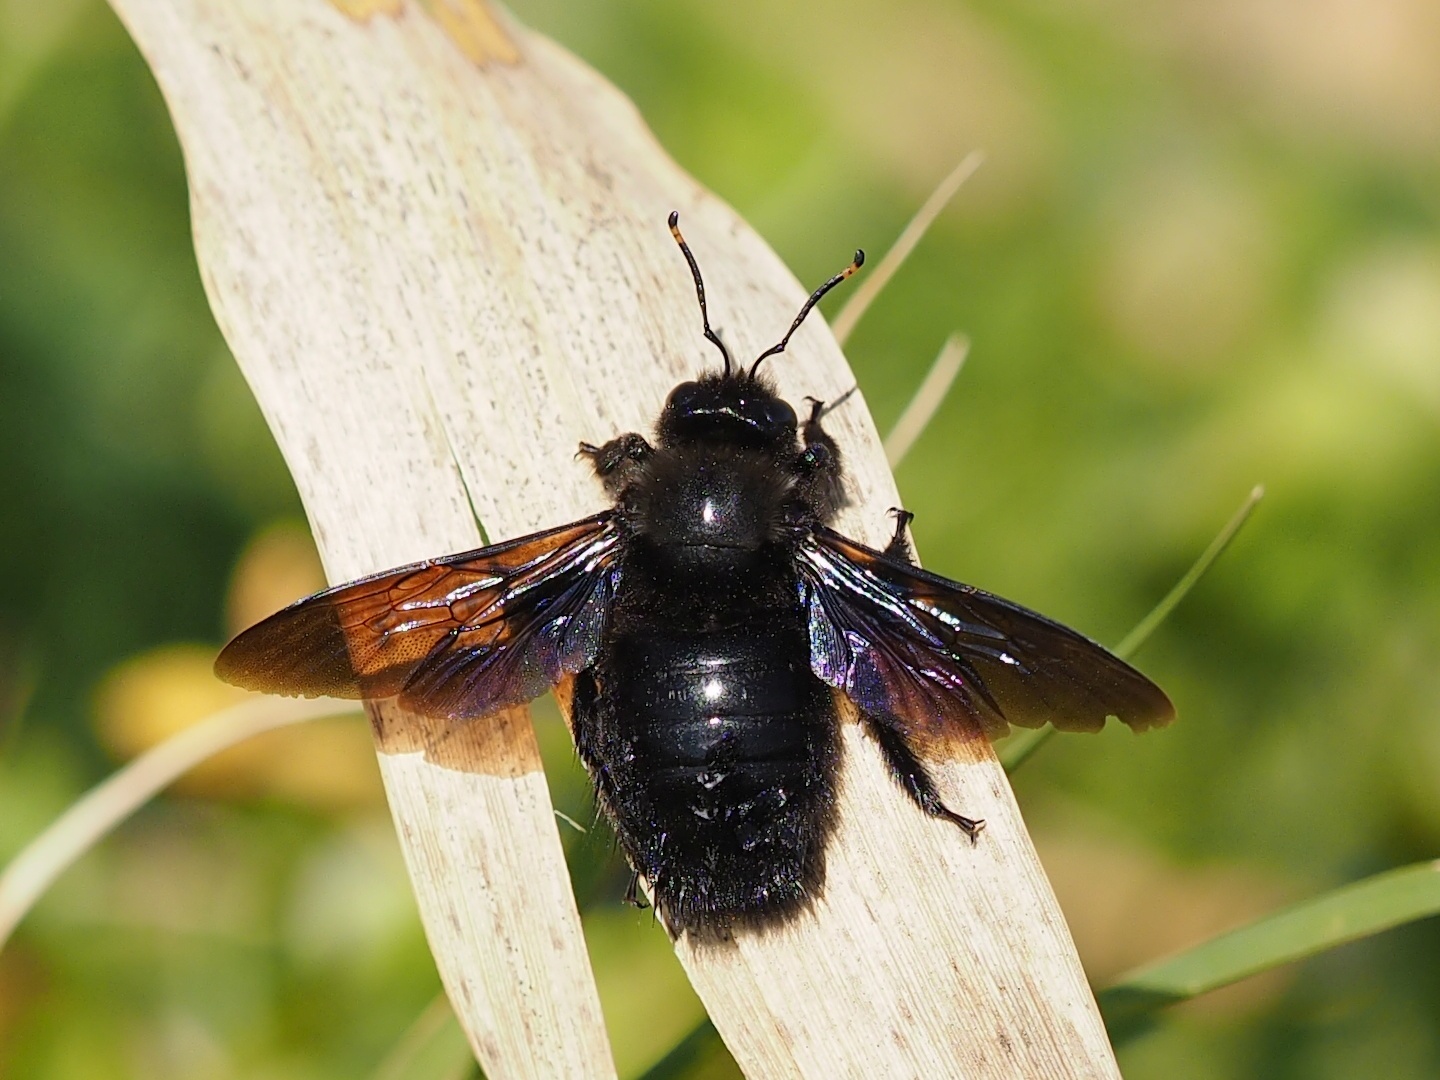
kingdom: Animalia
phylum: Arthropoda
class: Insecta
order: Hymenoptera
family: Apidae
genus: Xylocopa
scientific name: Xylocopa violacea
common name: Violet carpenter bee
